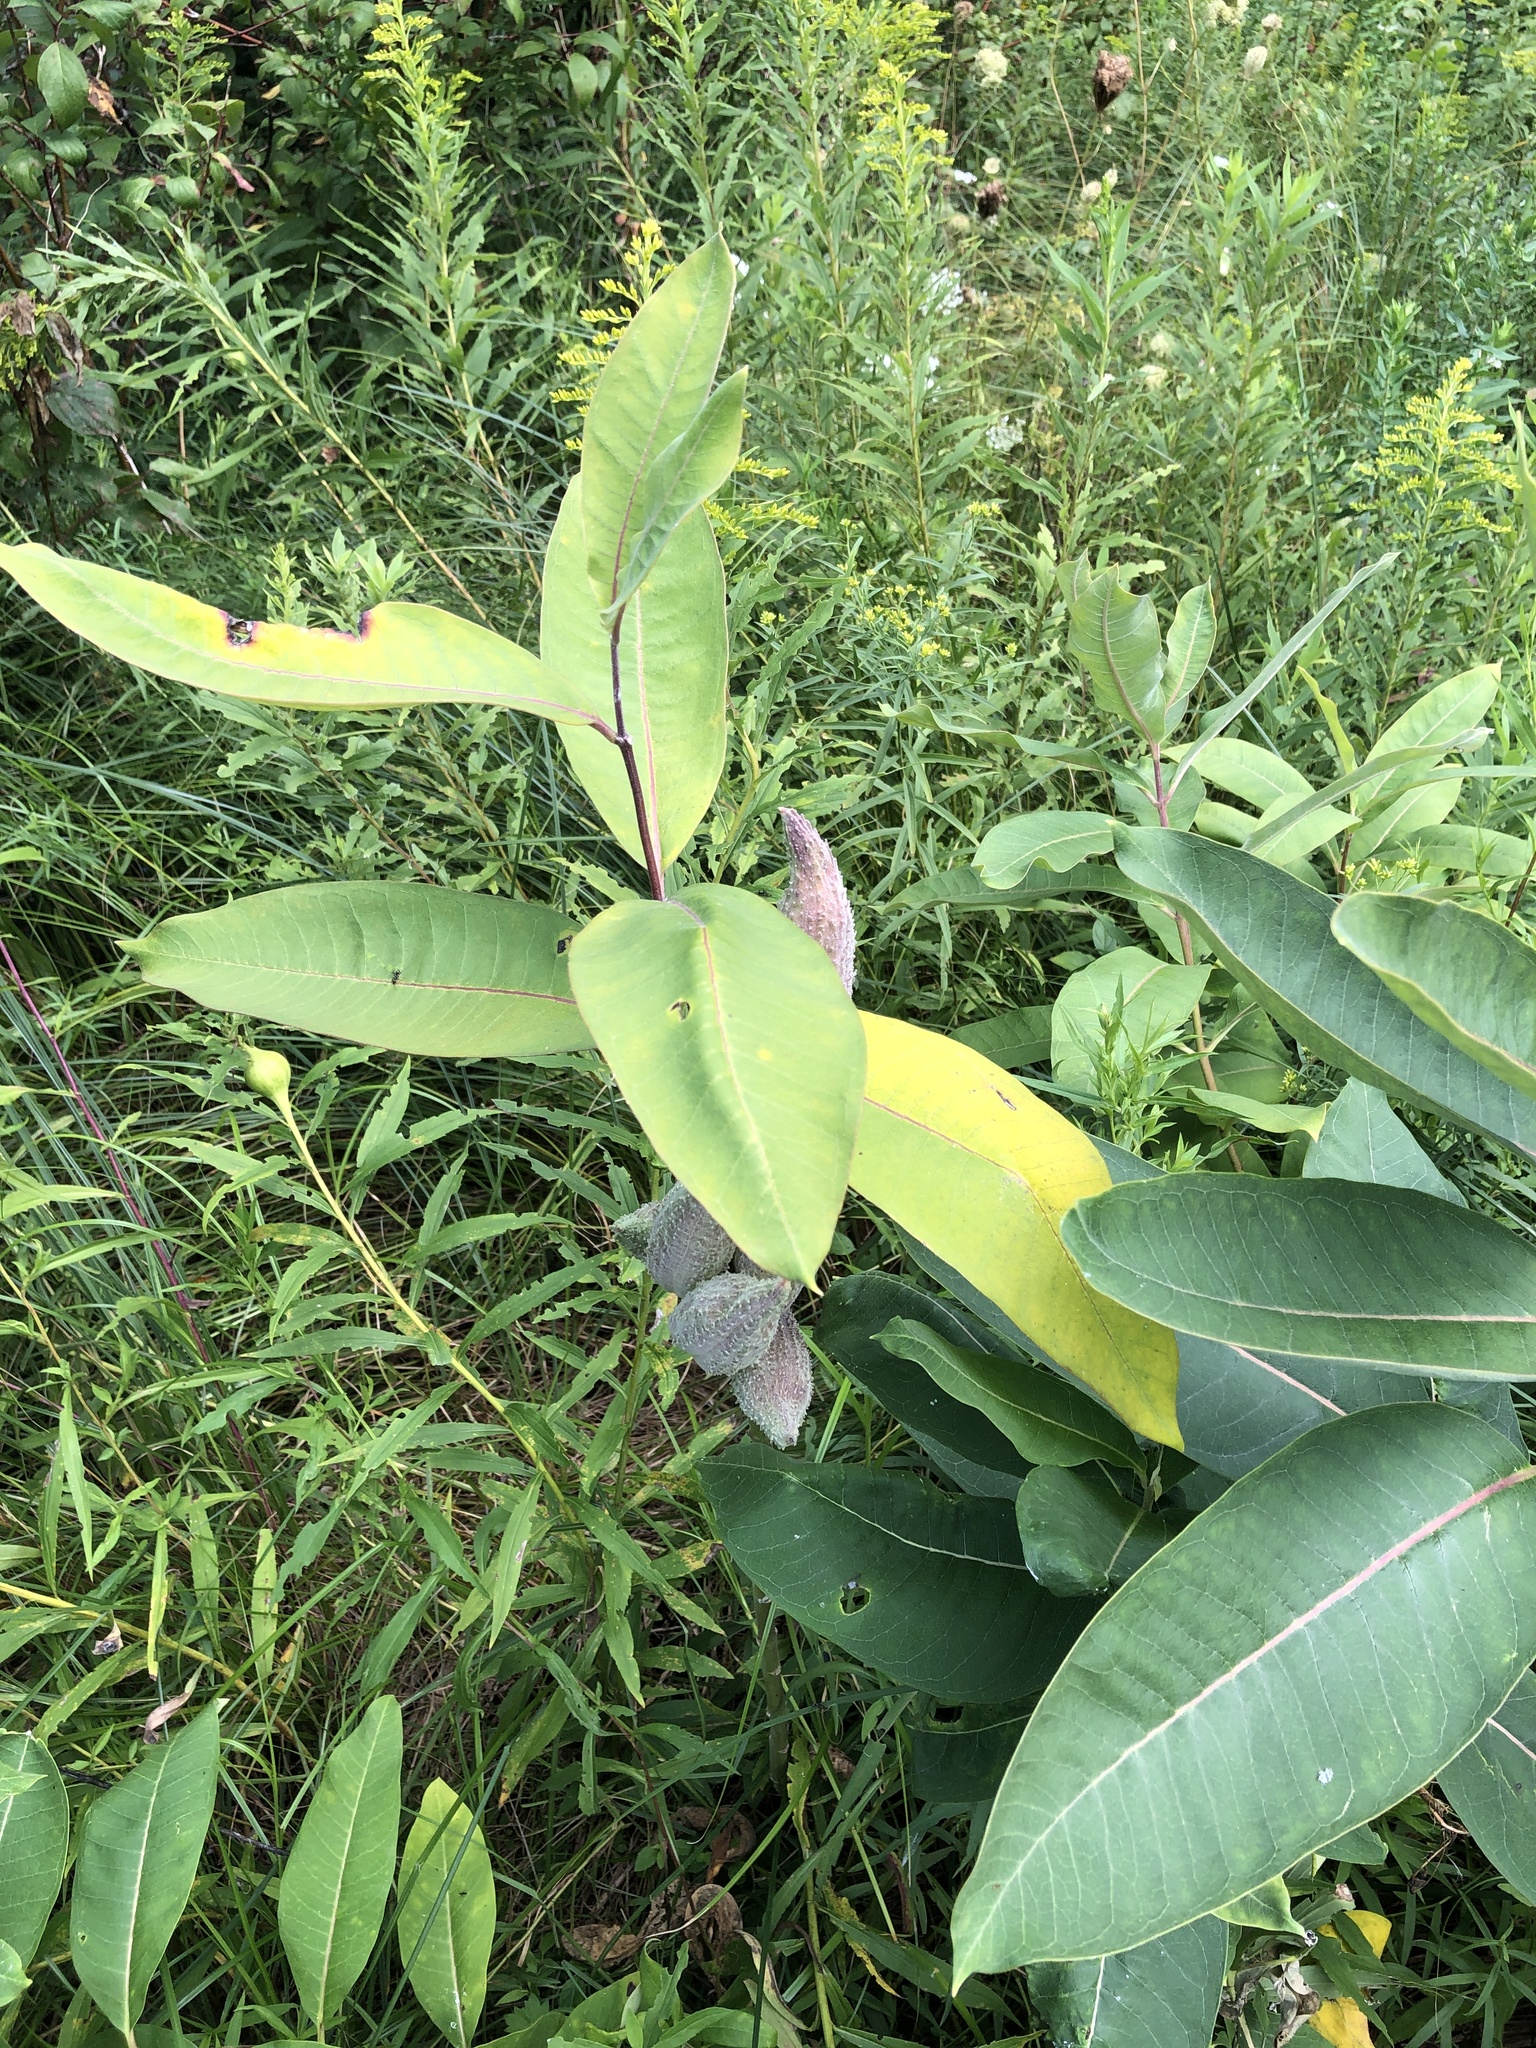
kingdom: Plantae
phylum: Tracheophyta
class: Magnoliopsida
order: Gentianales
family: Apocynaceae
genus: Asclepias
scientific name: Asclepias syriaca
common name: Common milkweed
